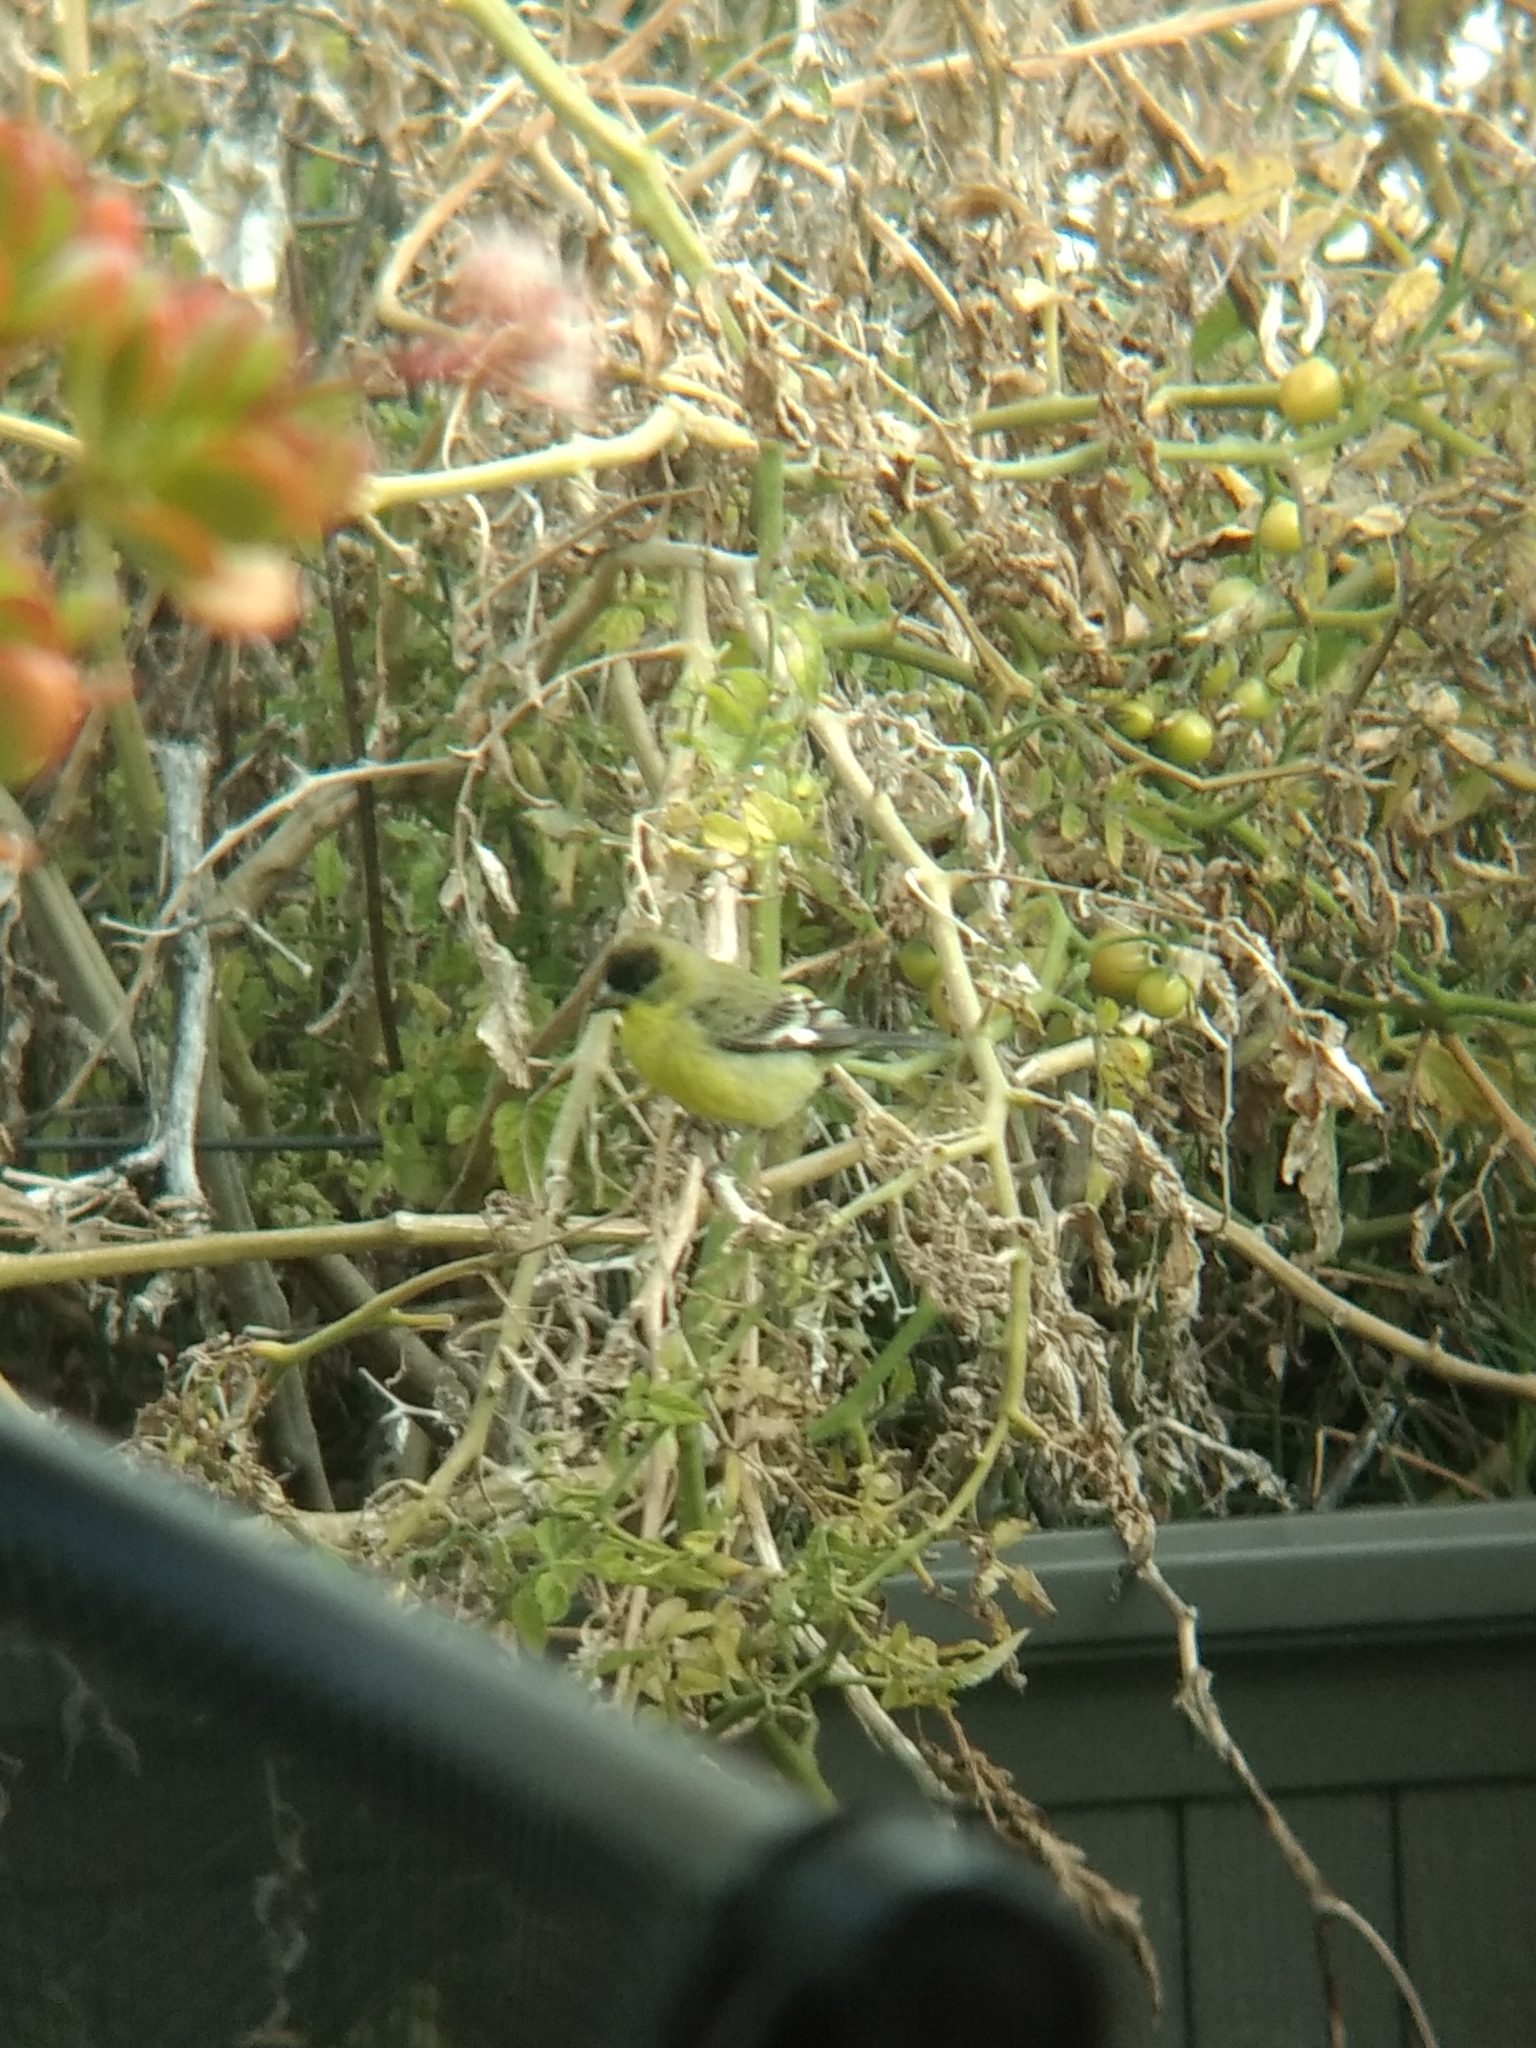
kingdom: Animalia
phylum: Chordata
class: Aves
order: Passeriformes
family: Fringillidae
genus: Spinus
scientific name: Spinus psaltria
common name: Lesser goldfinch
